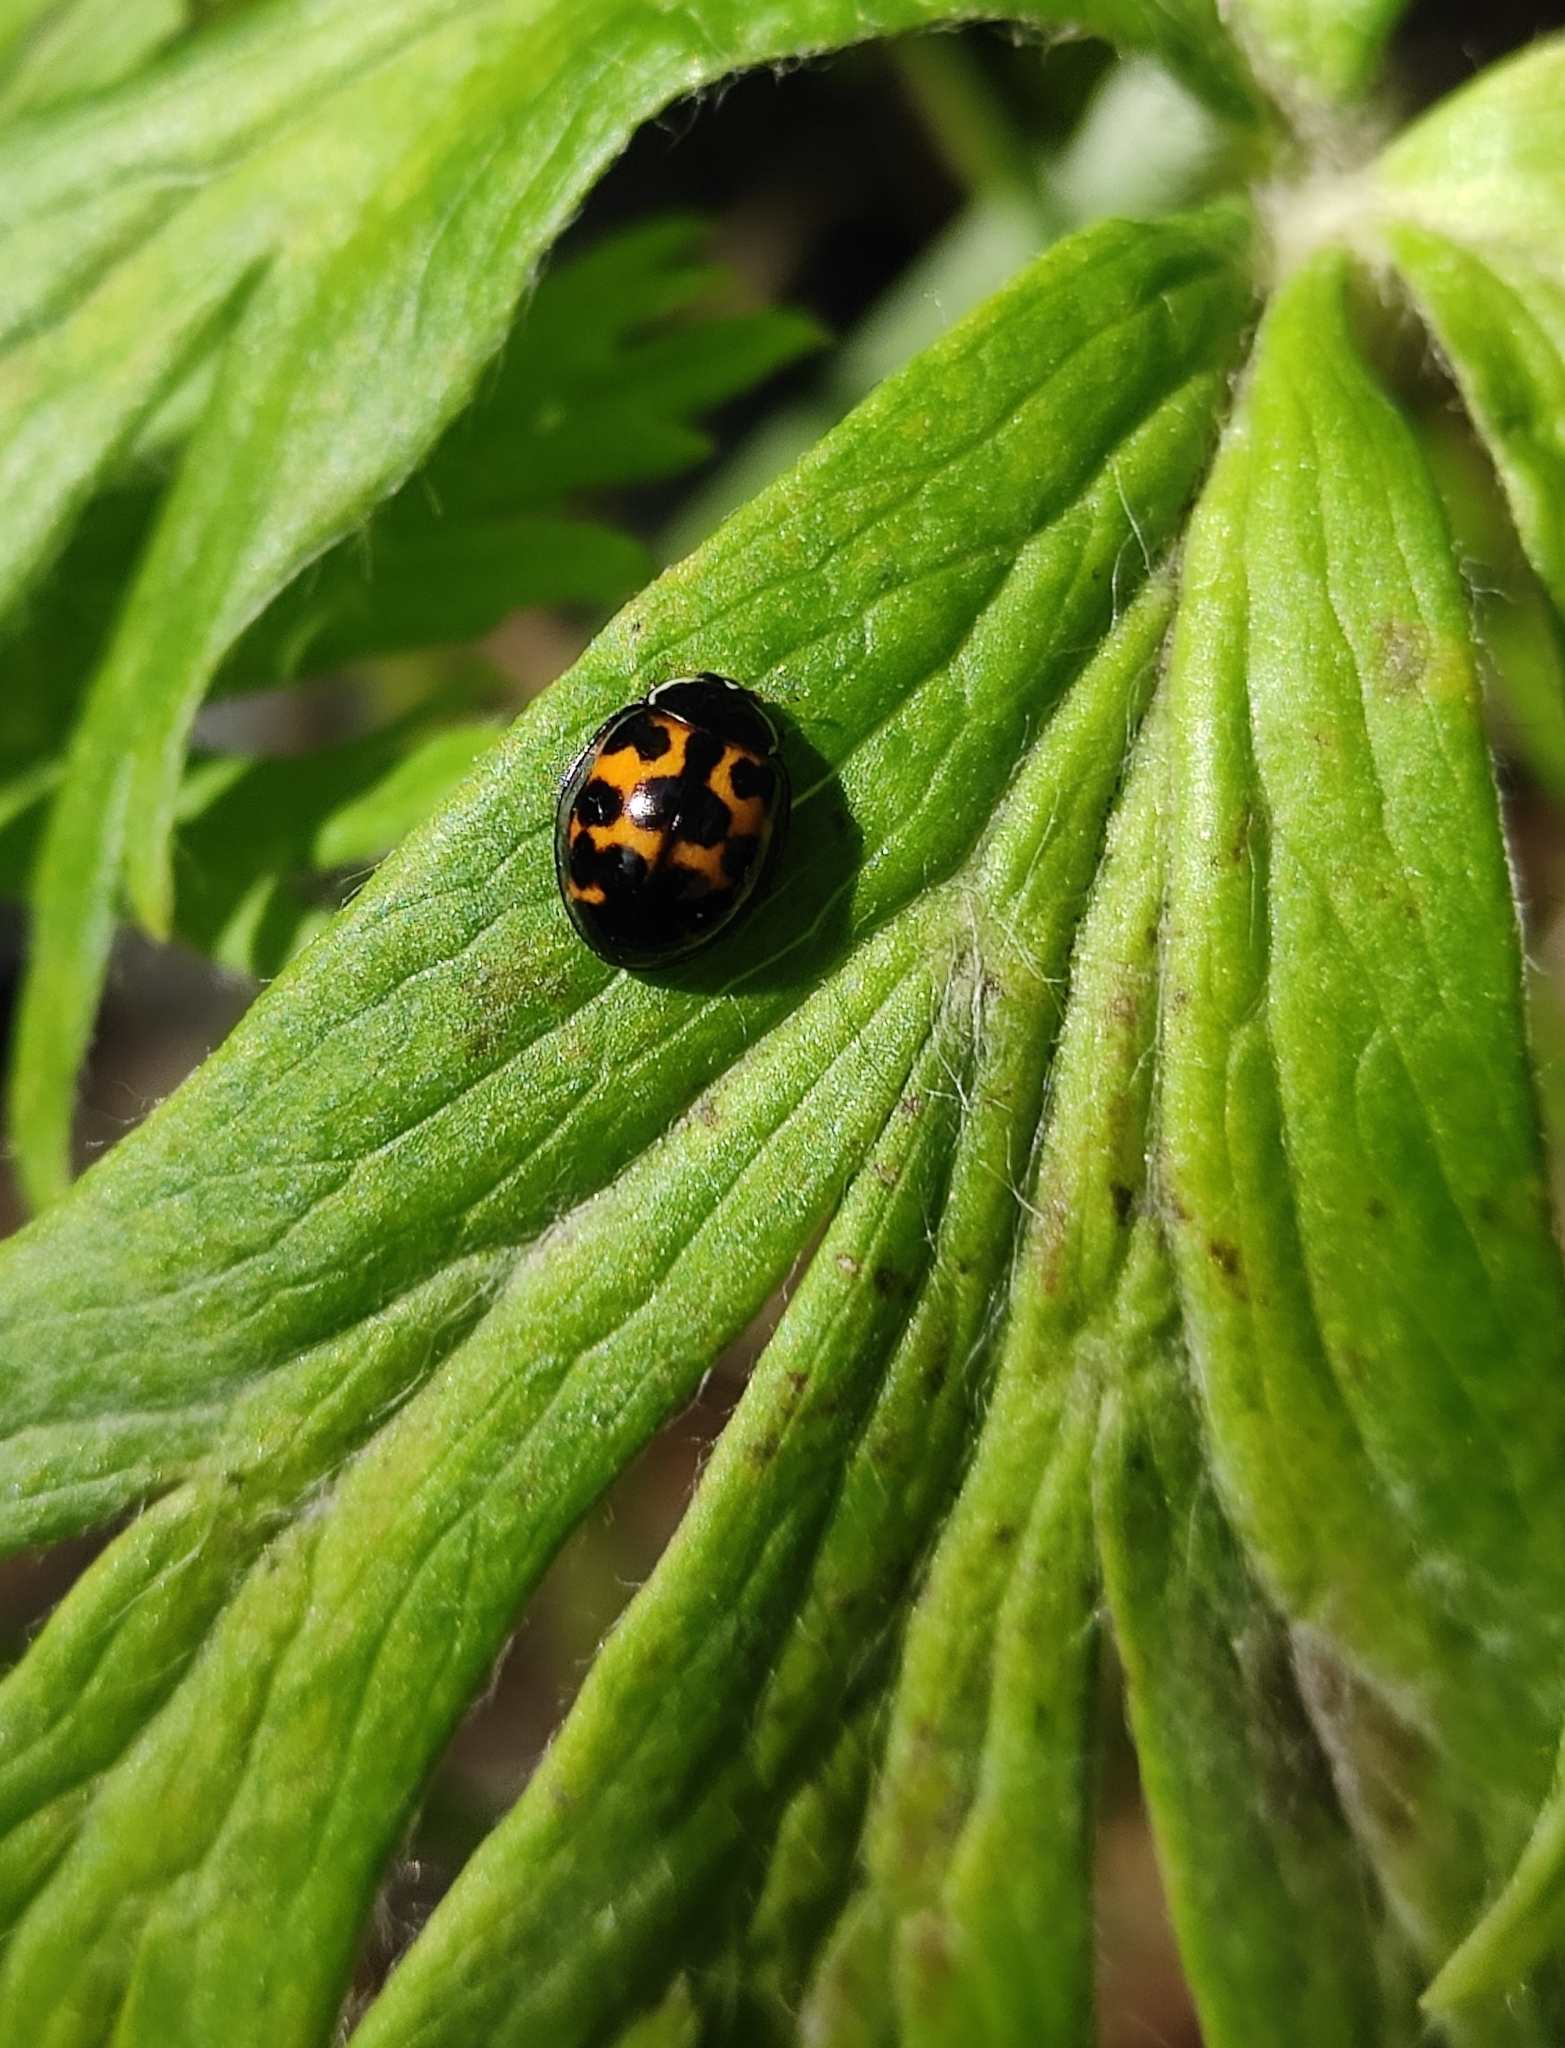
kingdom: Animalia
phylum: Arthropoda
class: Insecta
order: Coleoptera
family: Coccinellidae
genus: Harmonia
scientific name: Harmonia axyridis
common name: Harlequin ladybird
